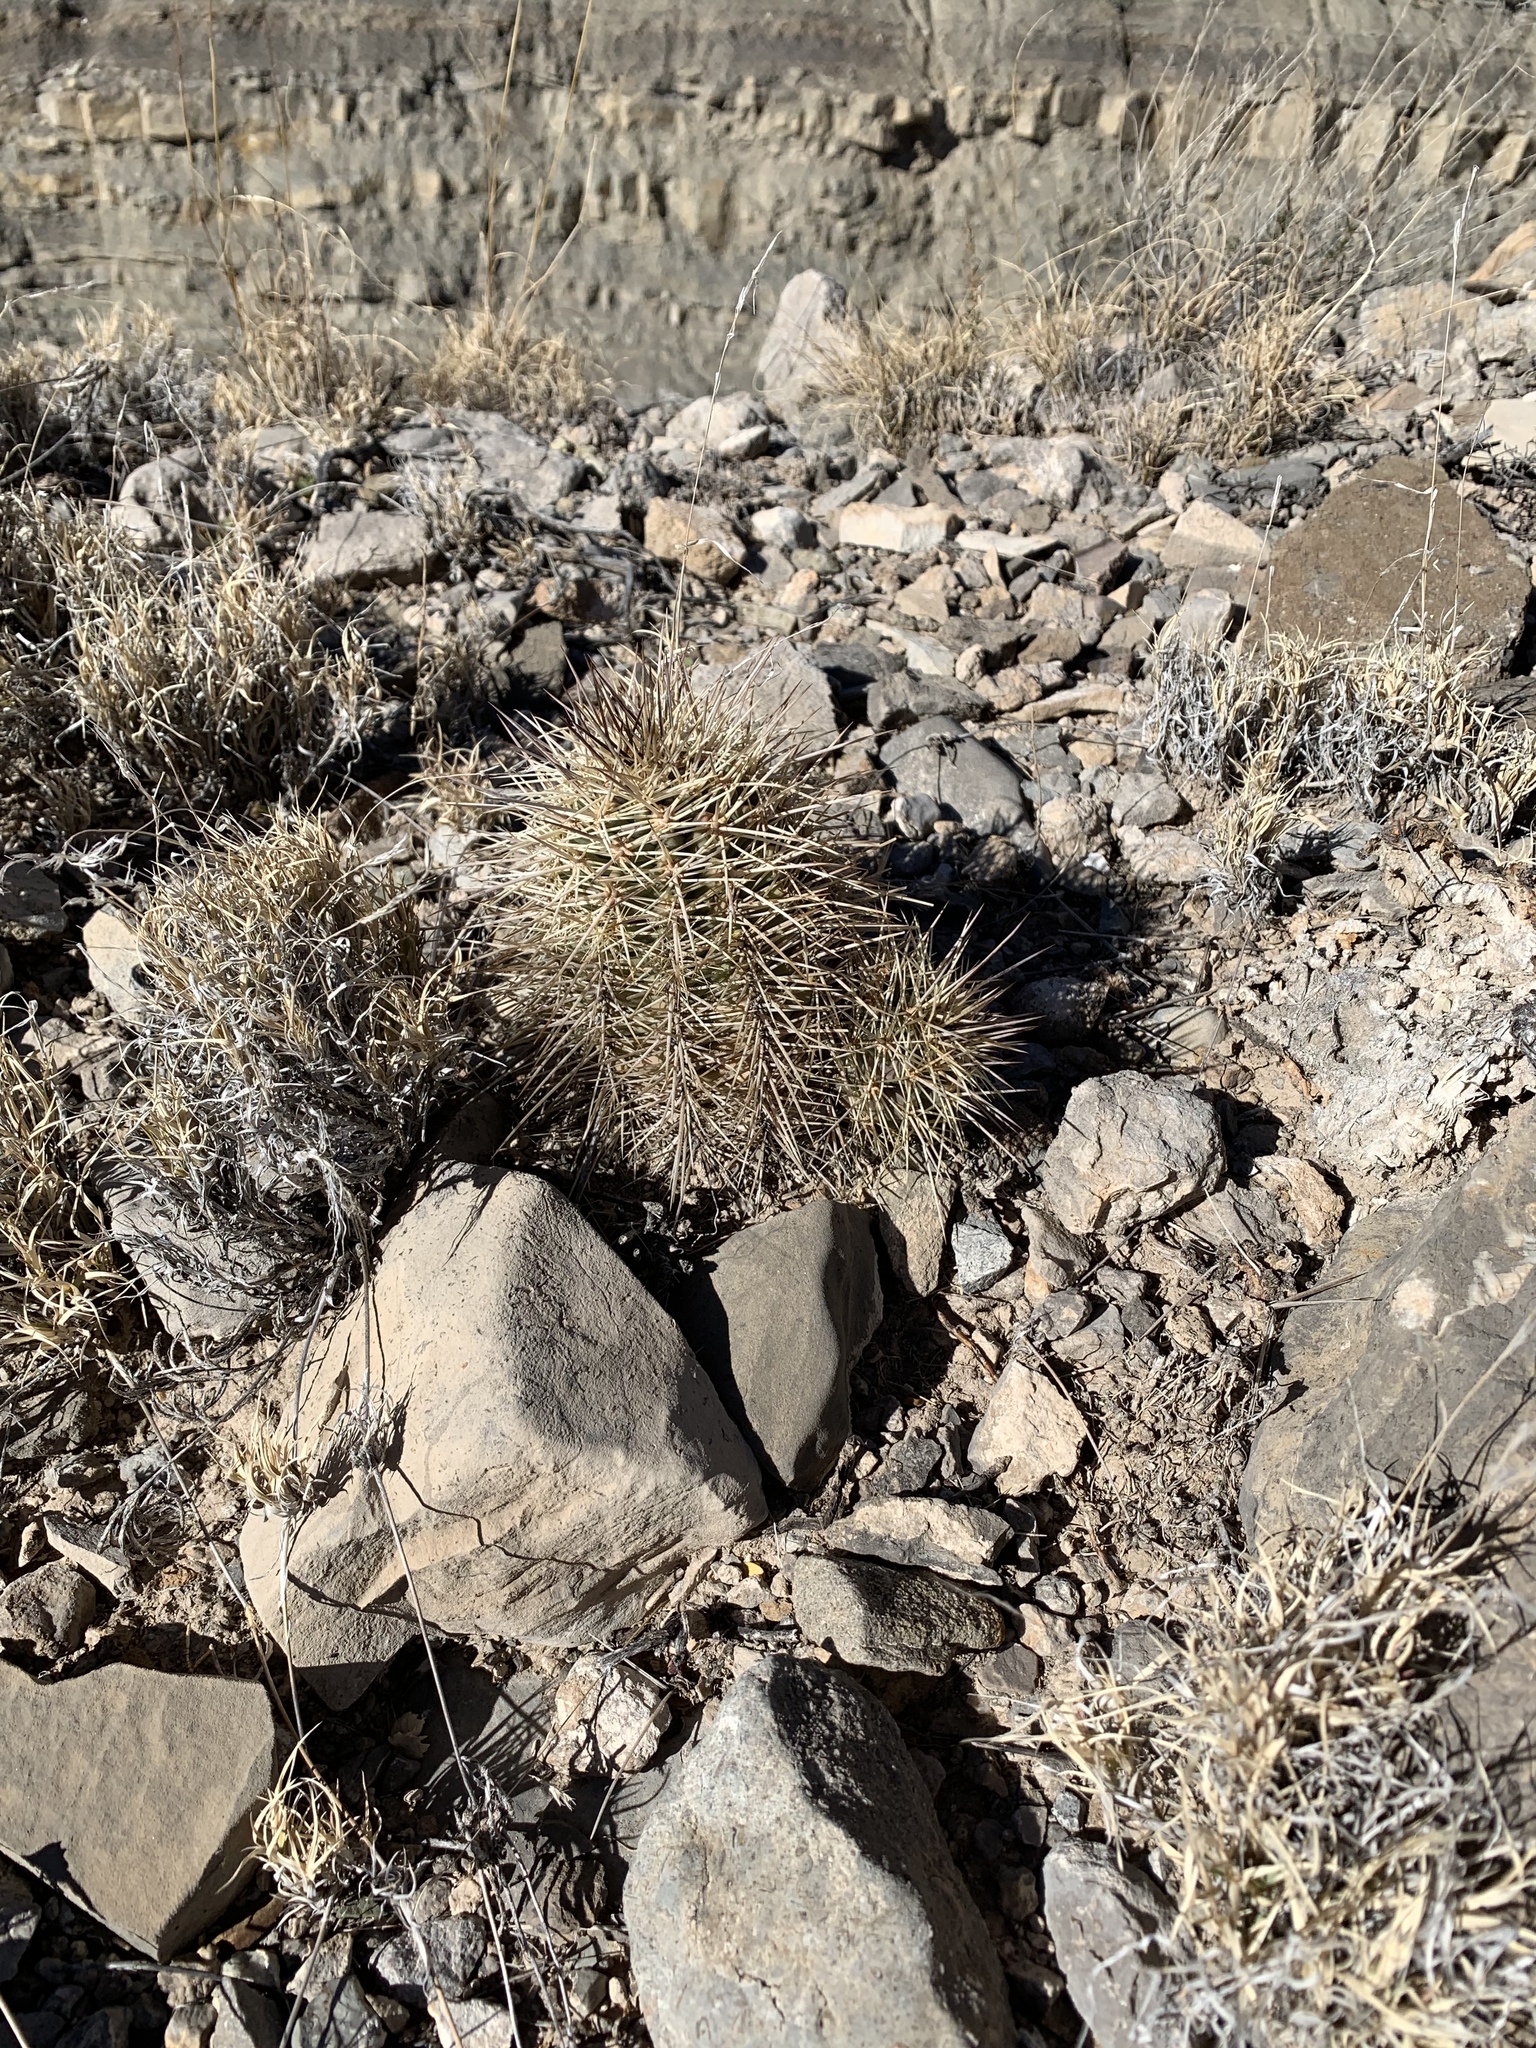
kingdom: Plantae
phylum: Tracheophyta
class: Magnoliopsida
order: Caryophyllales
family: Cactaceae
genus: Echinocereus
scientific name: Echinocereus coccineus
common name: Scarlet hedgehog cactus
